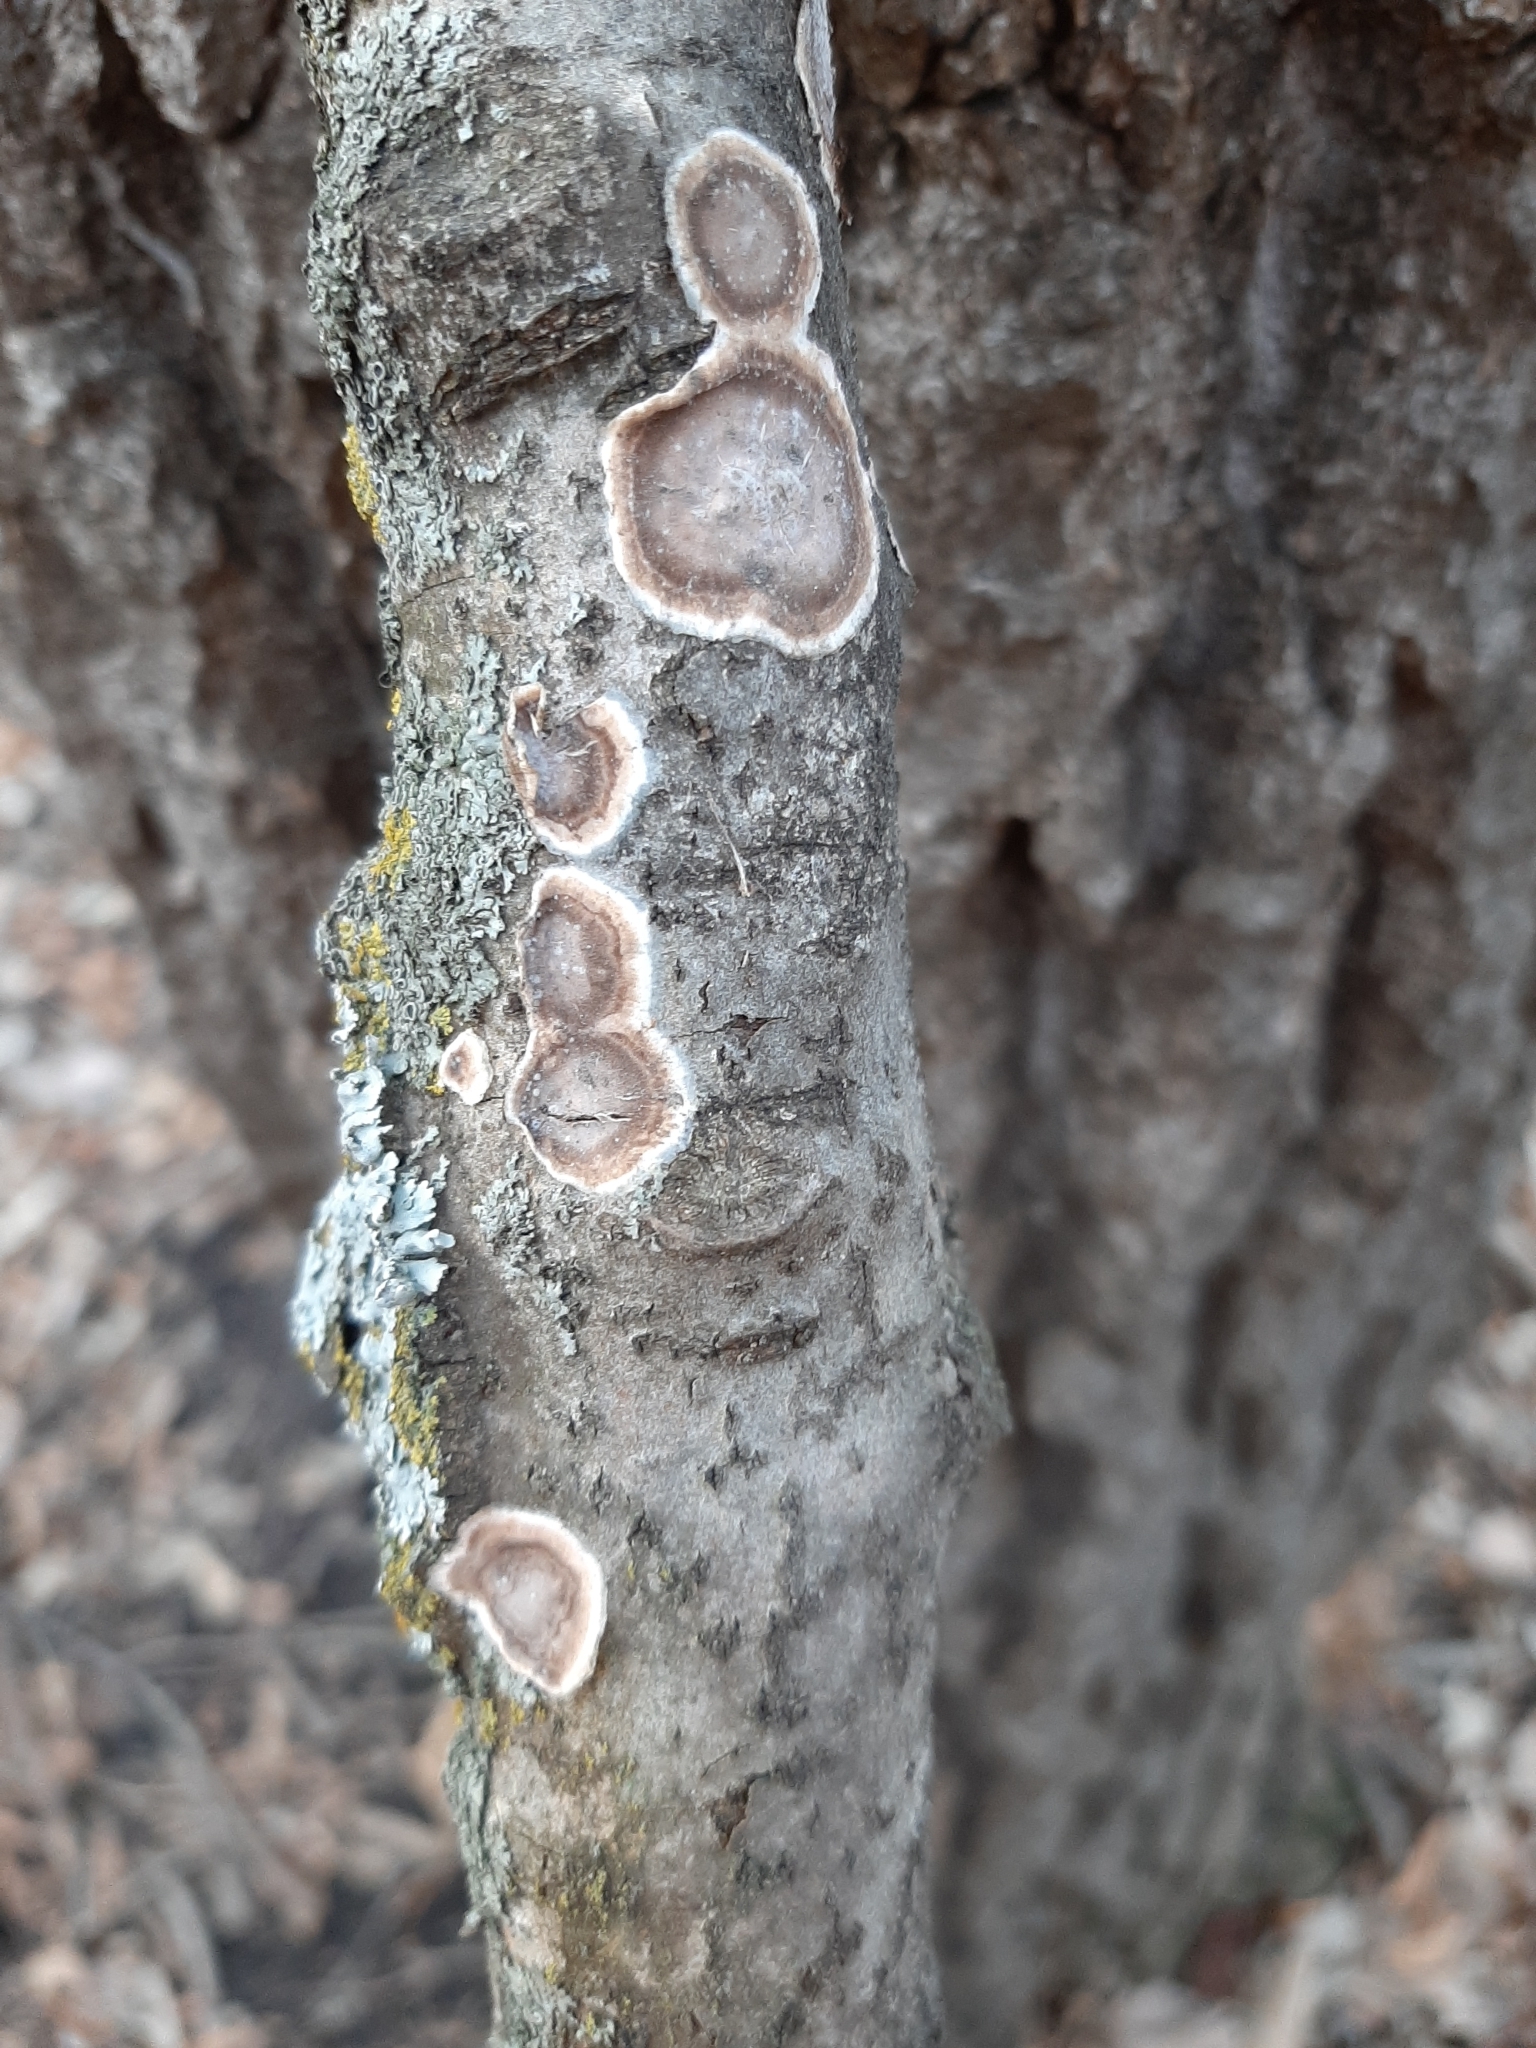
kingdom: Fungi
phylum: Basidiomycota
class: Agaricomycetes
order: Russulales
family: Peniophoraceae
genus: Peniophora
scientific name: Peniophora albobadia
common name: Giraffe spots
